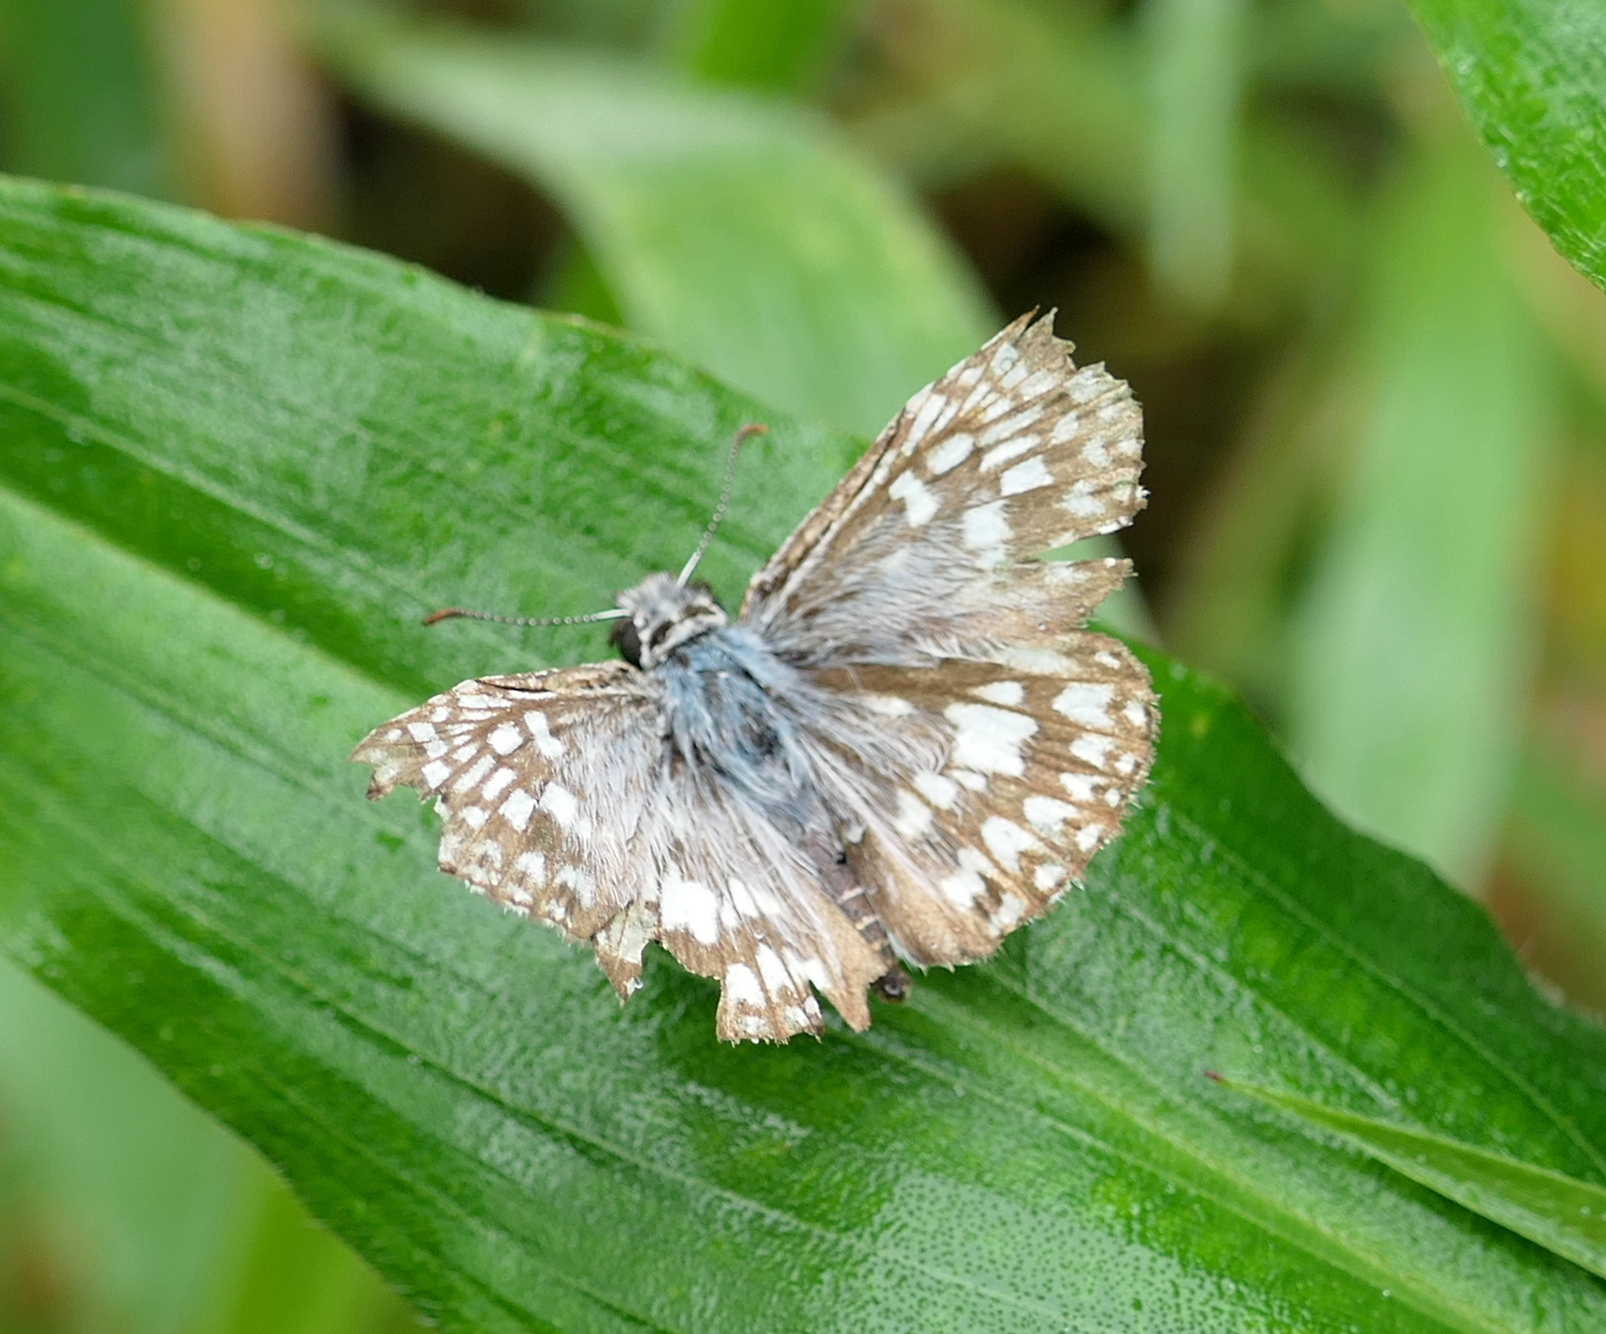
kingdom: Animalia
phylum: Arthropoda
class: Insecta
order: Lepidoptera
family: Hesperiidae
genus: Pyrgus
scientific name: Pyrgus oileus
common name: Tropical checkered-skipper
